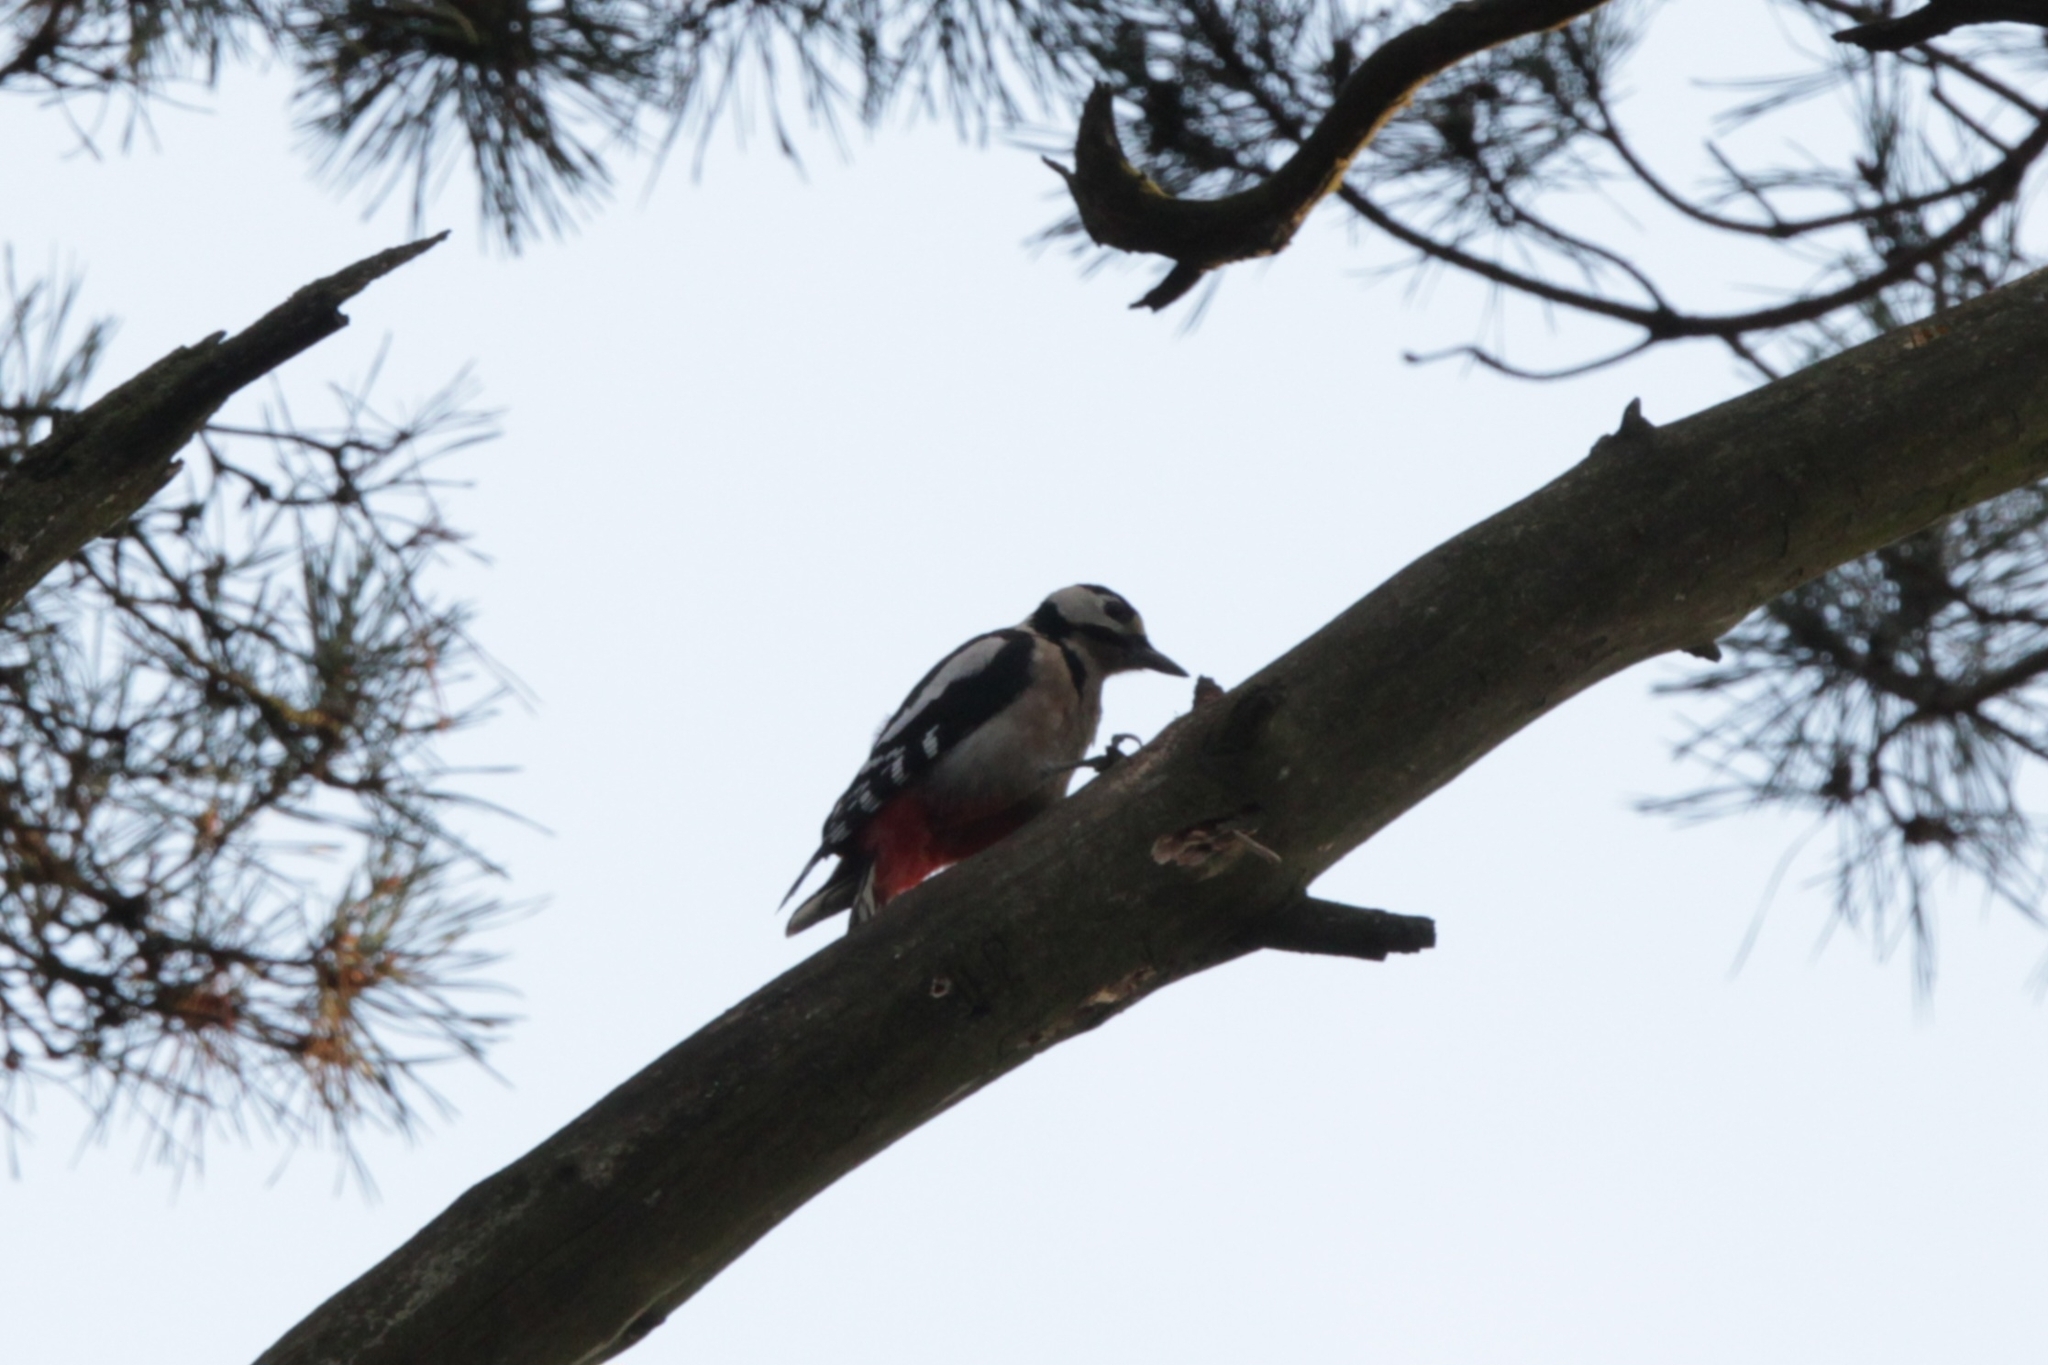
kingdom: Animalia
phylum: Chordata
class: Aves
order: Piciformes
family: Picidae
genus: Dendrocopos
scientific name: Dendrocopos major
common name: Great spotted woodpecker
